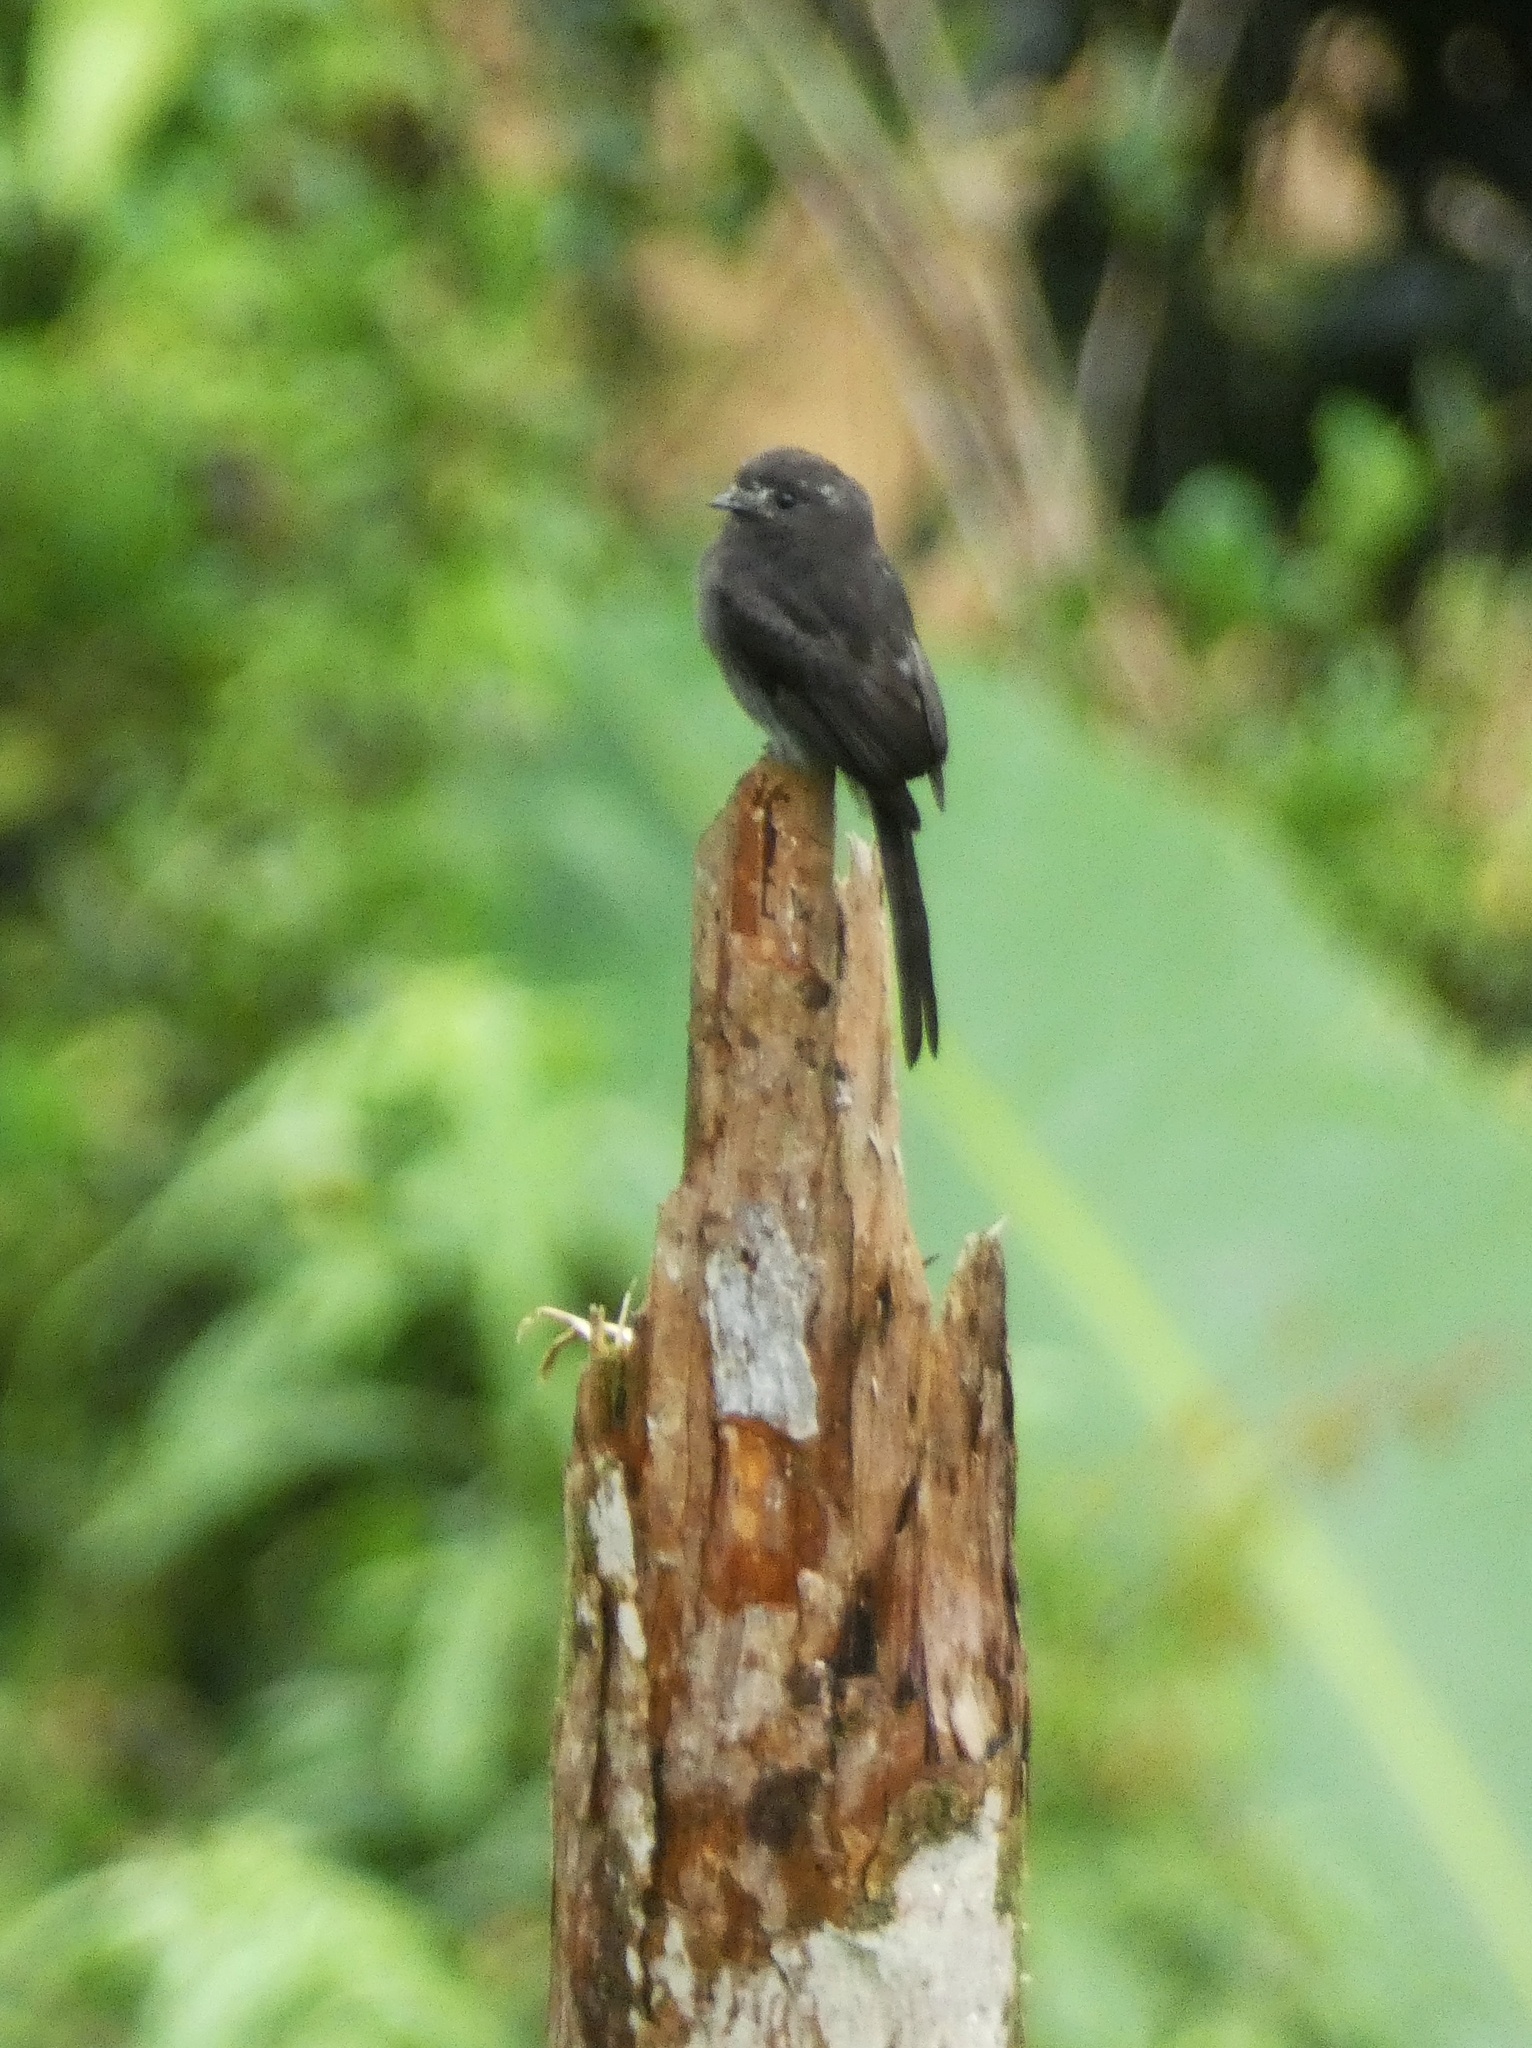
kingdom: Animalia
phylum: Chordata
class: Aves
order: Passeriformes
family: Tyrannidae
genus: Colonia
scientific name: Colonia colonus
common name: Long-tailed tyrant
